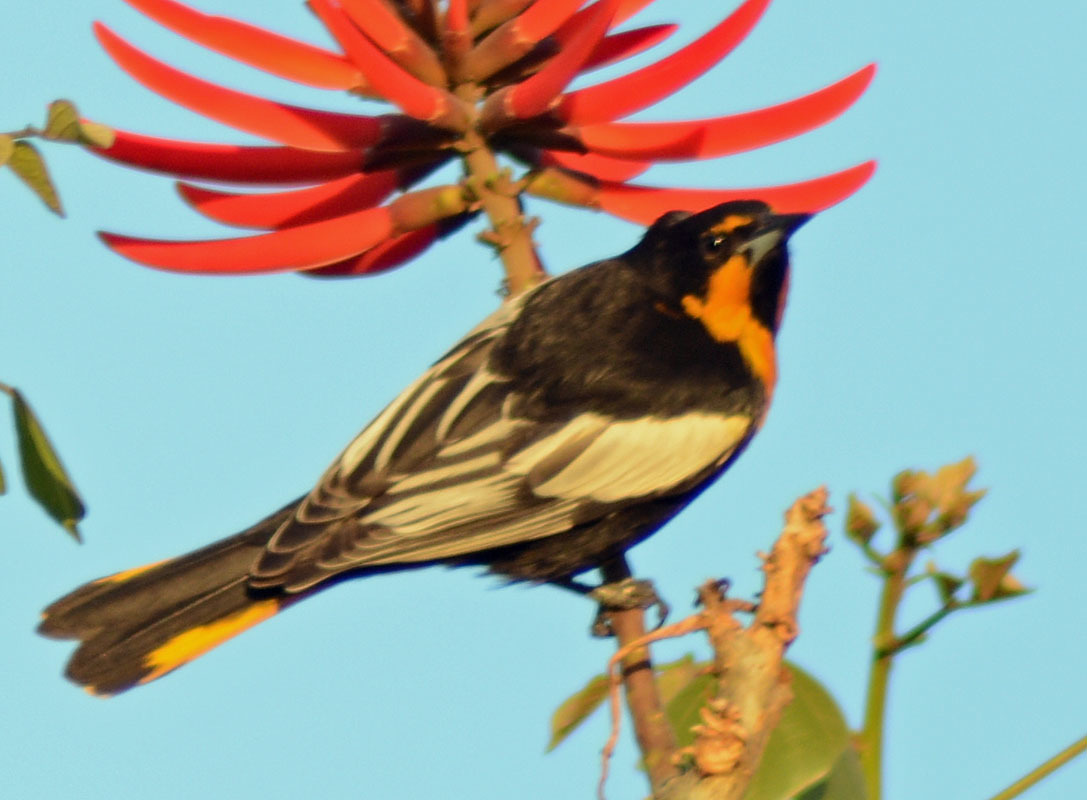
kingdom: Animalia
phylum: Chordata
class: Aves
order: Passeriformes
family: Icteridae
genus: Icterus
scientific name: Icterus abeillei
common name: Black-backed oriole
